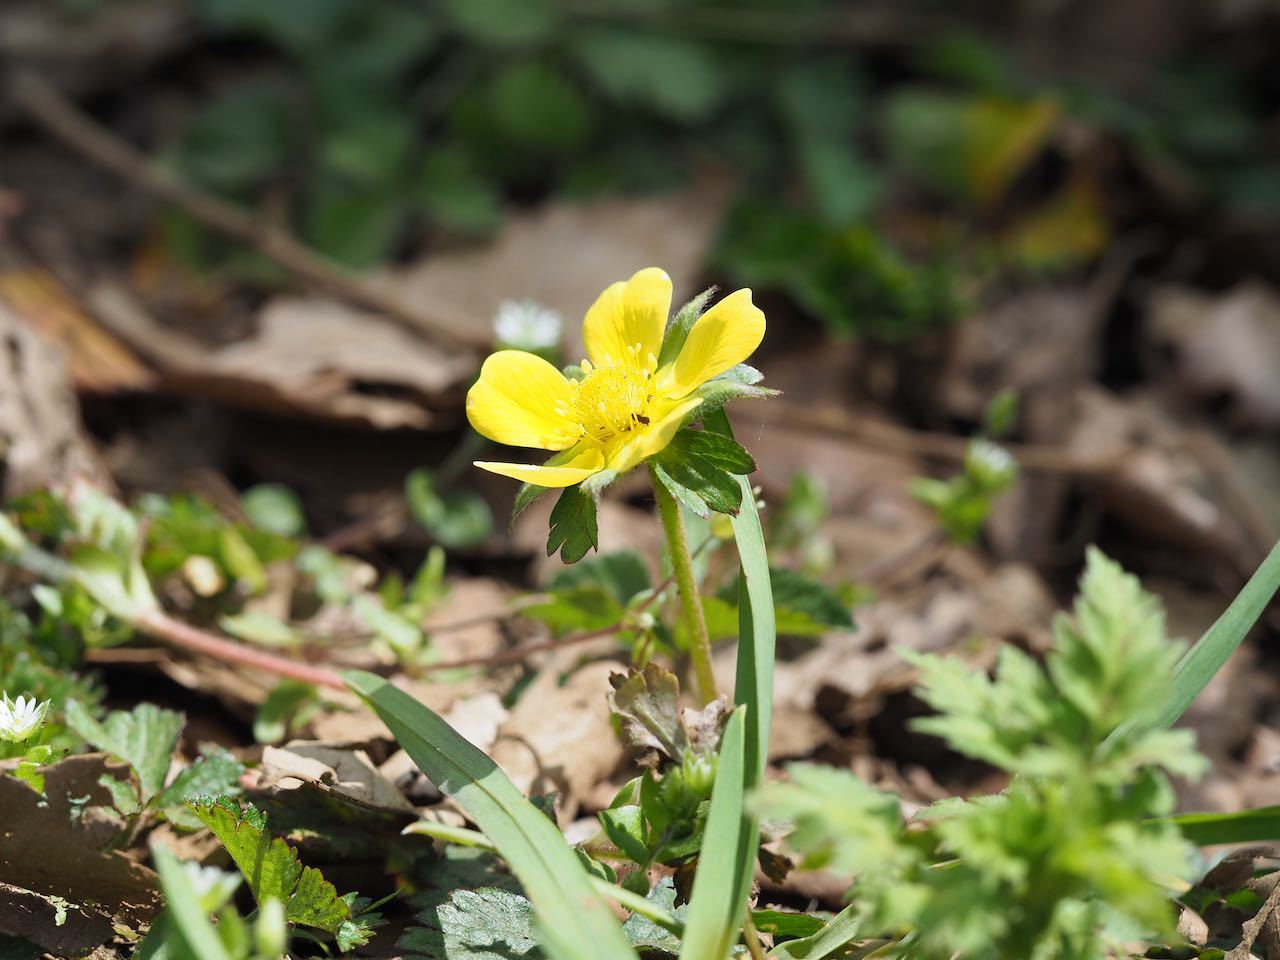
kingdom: Plantae
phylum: Tracheophyta
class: Magnoliopsida
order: Rosales
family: Rosaceae
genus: Potentilla
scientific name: Potentilla wallichiana
